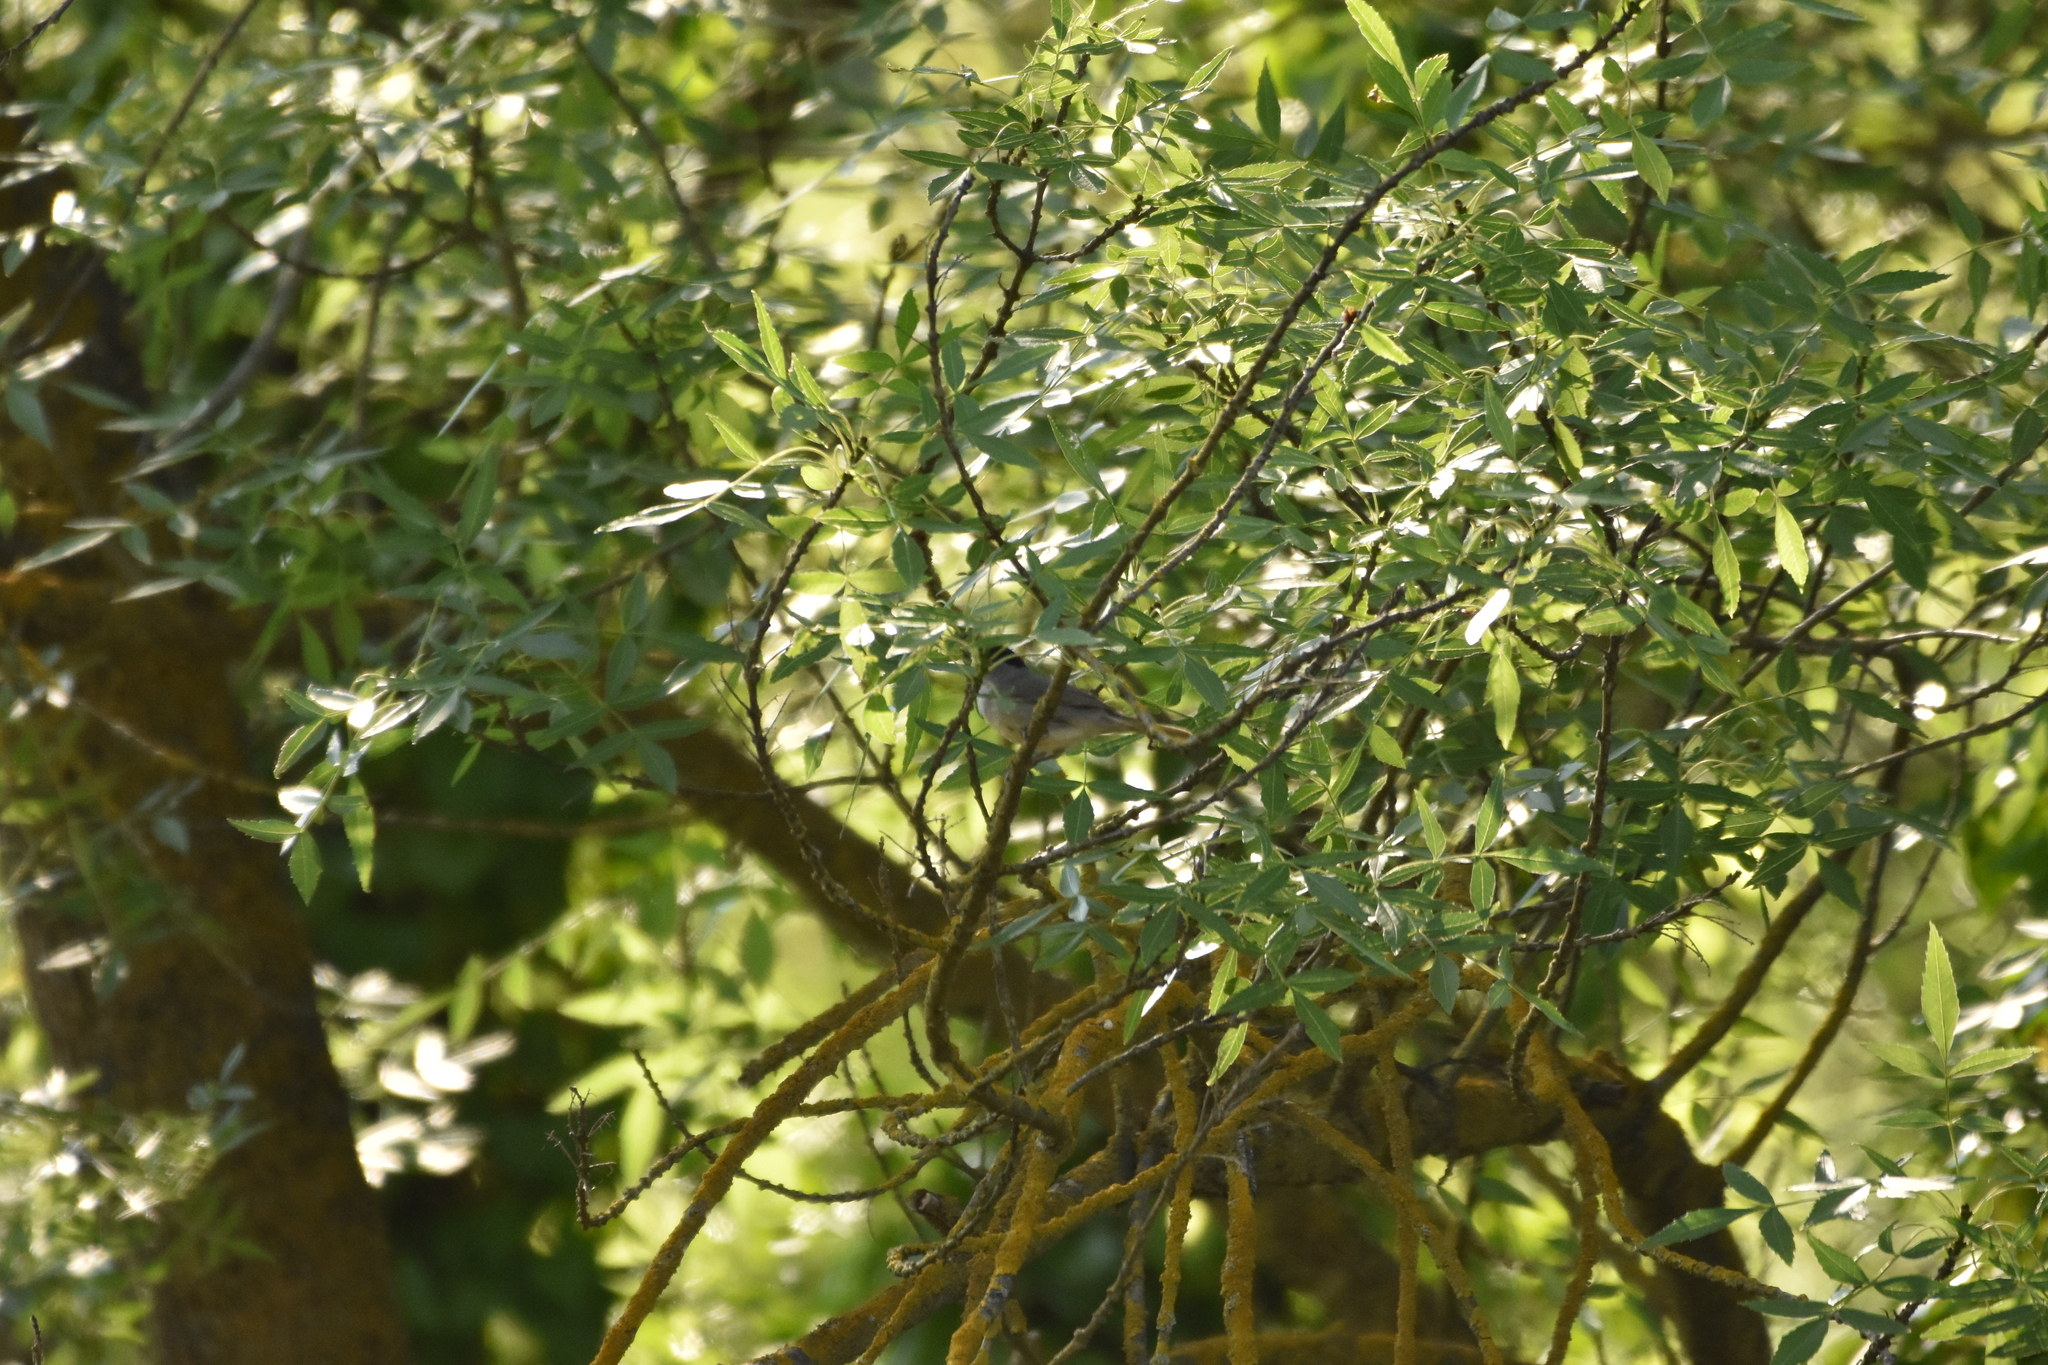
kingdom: Animalia
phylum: Chordata
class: Aves
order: Passeriformes
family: Sylviidae
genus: Sylvia
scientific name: Sylvia atricapilla
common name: Eurasian blackcap
